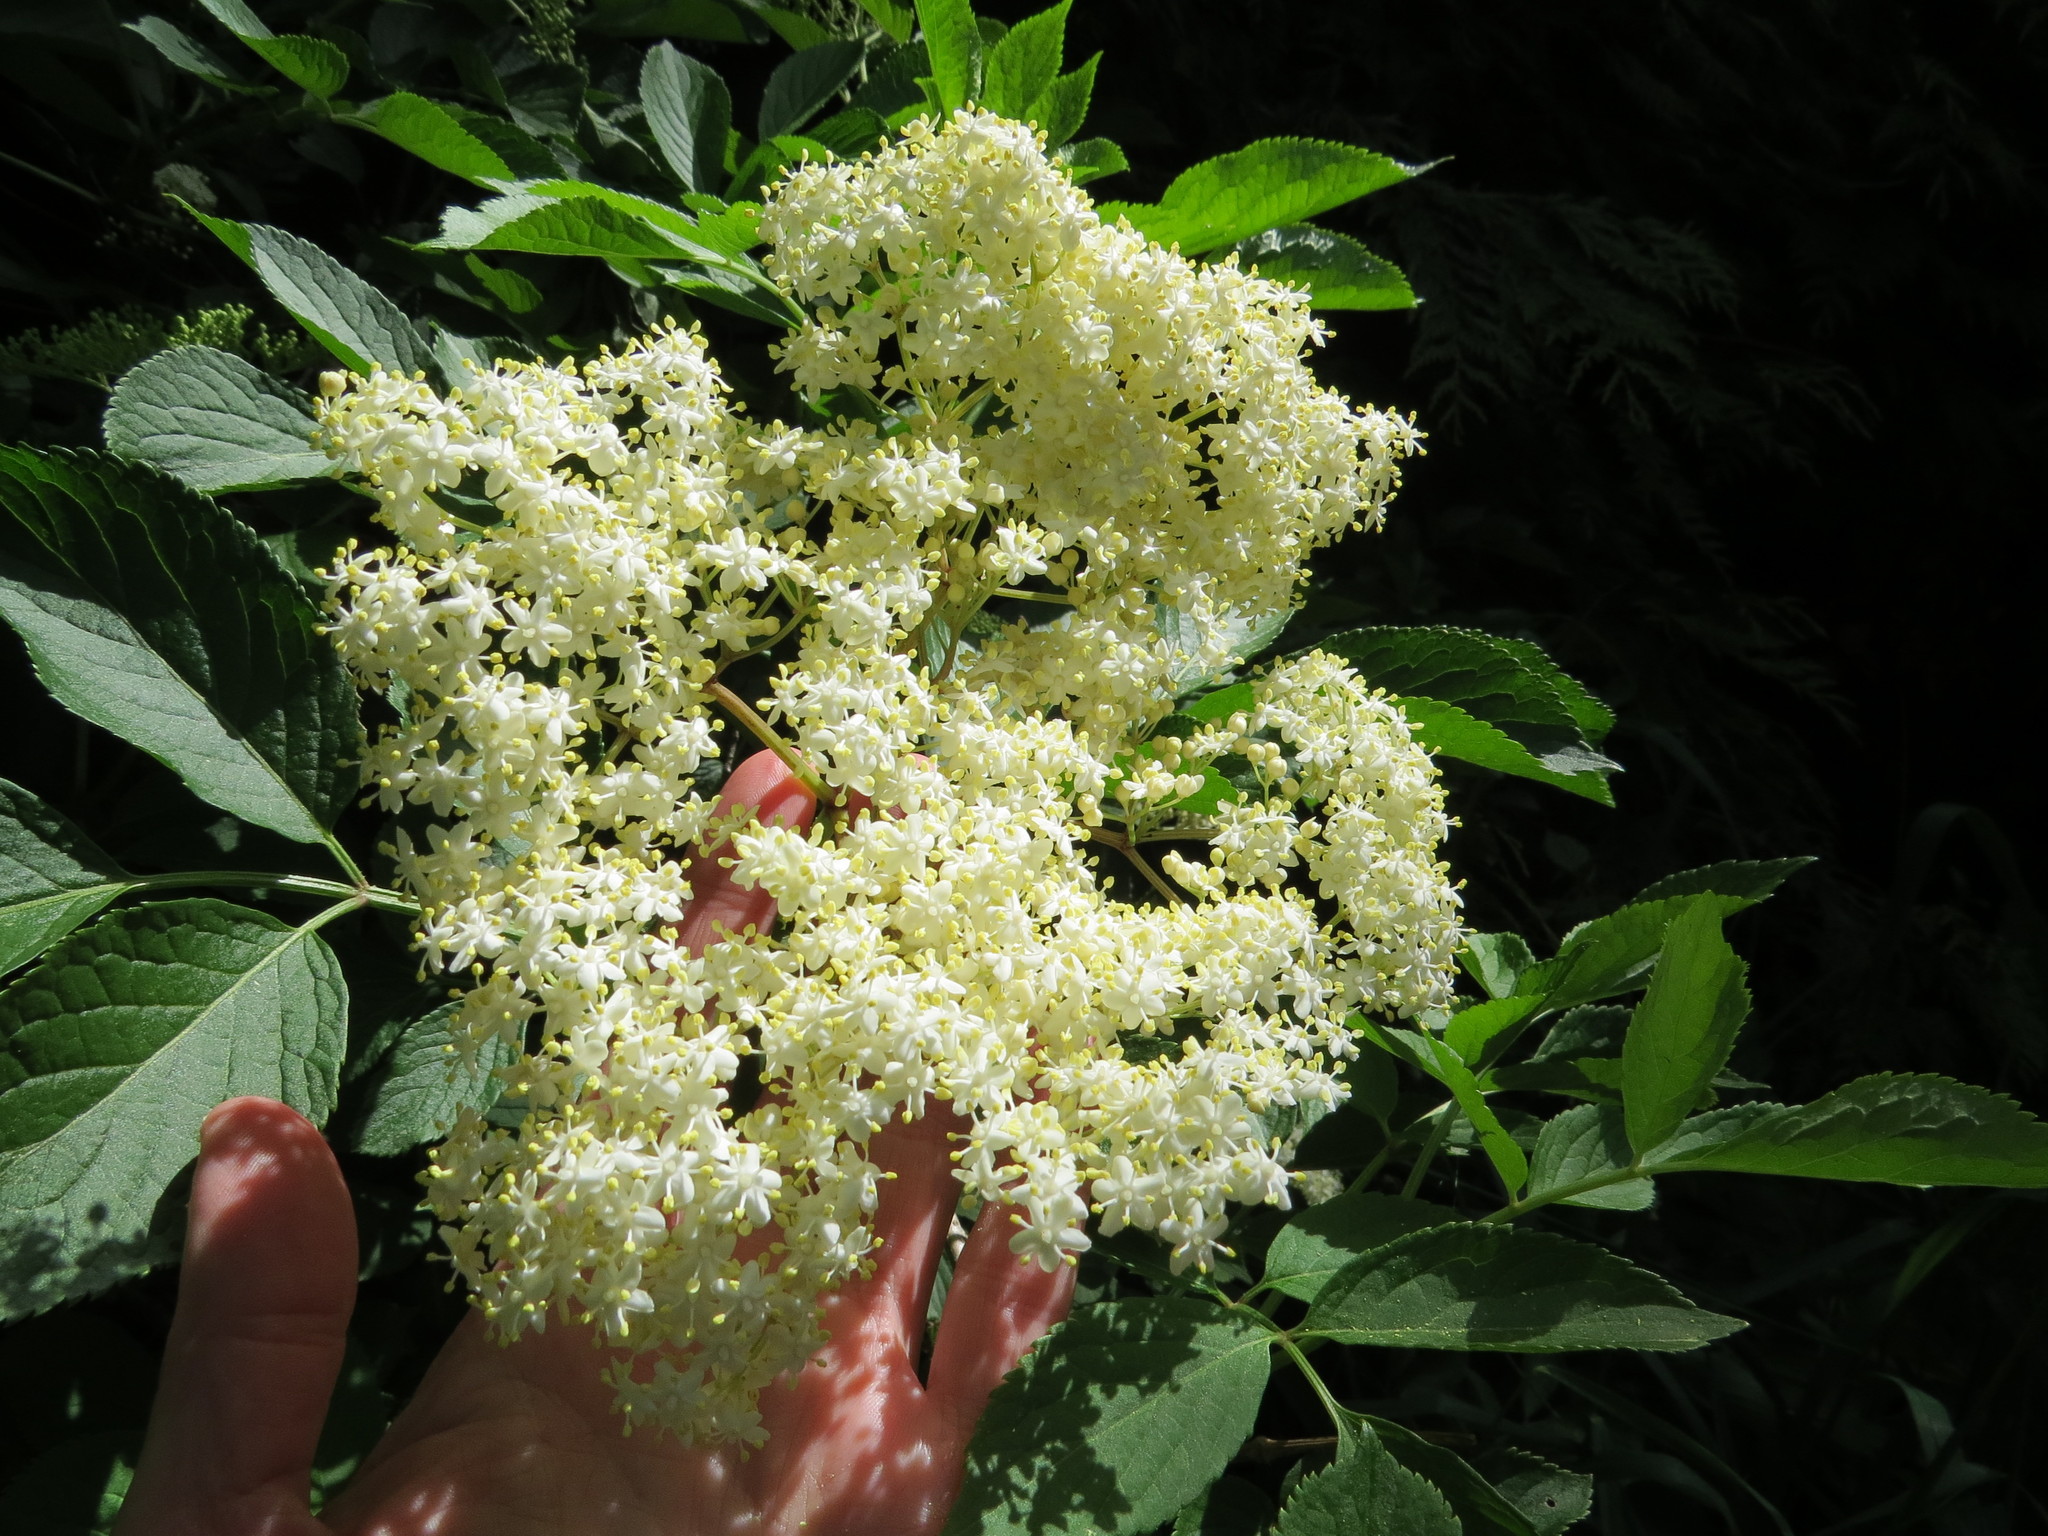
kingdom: Plantae
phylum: Tracheophyta
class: Magnoliopsida
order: Dipsacales
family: Viburnaceae
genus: Sambucus
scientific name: Sambucus nigra
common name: Elder
